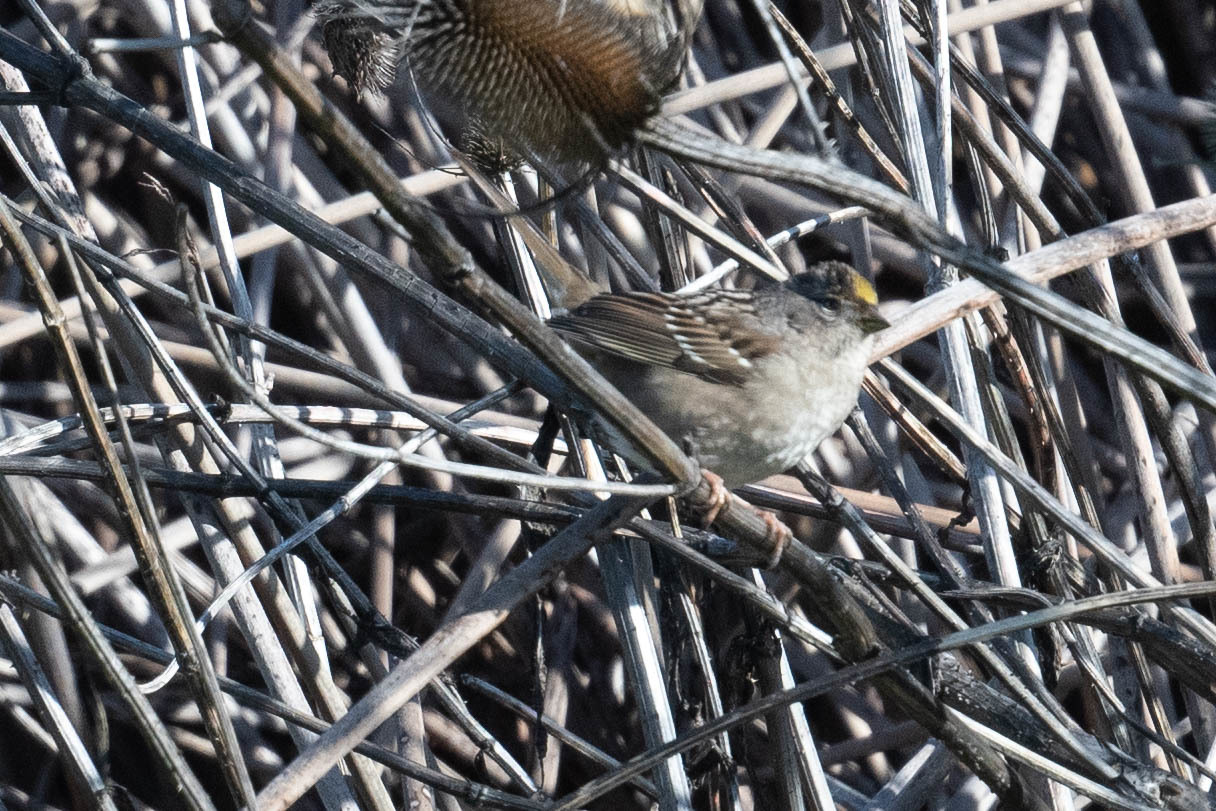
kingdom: Animalia
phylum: Chordata
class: Aves
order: Passeriformes
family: Passerellidae
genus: Zonotrichia
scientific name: Zonotrichia atricapilla
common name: Golden-crowned sparrow
